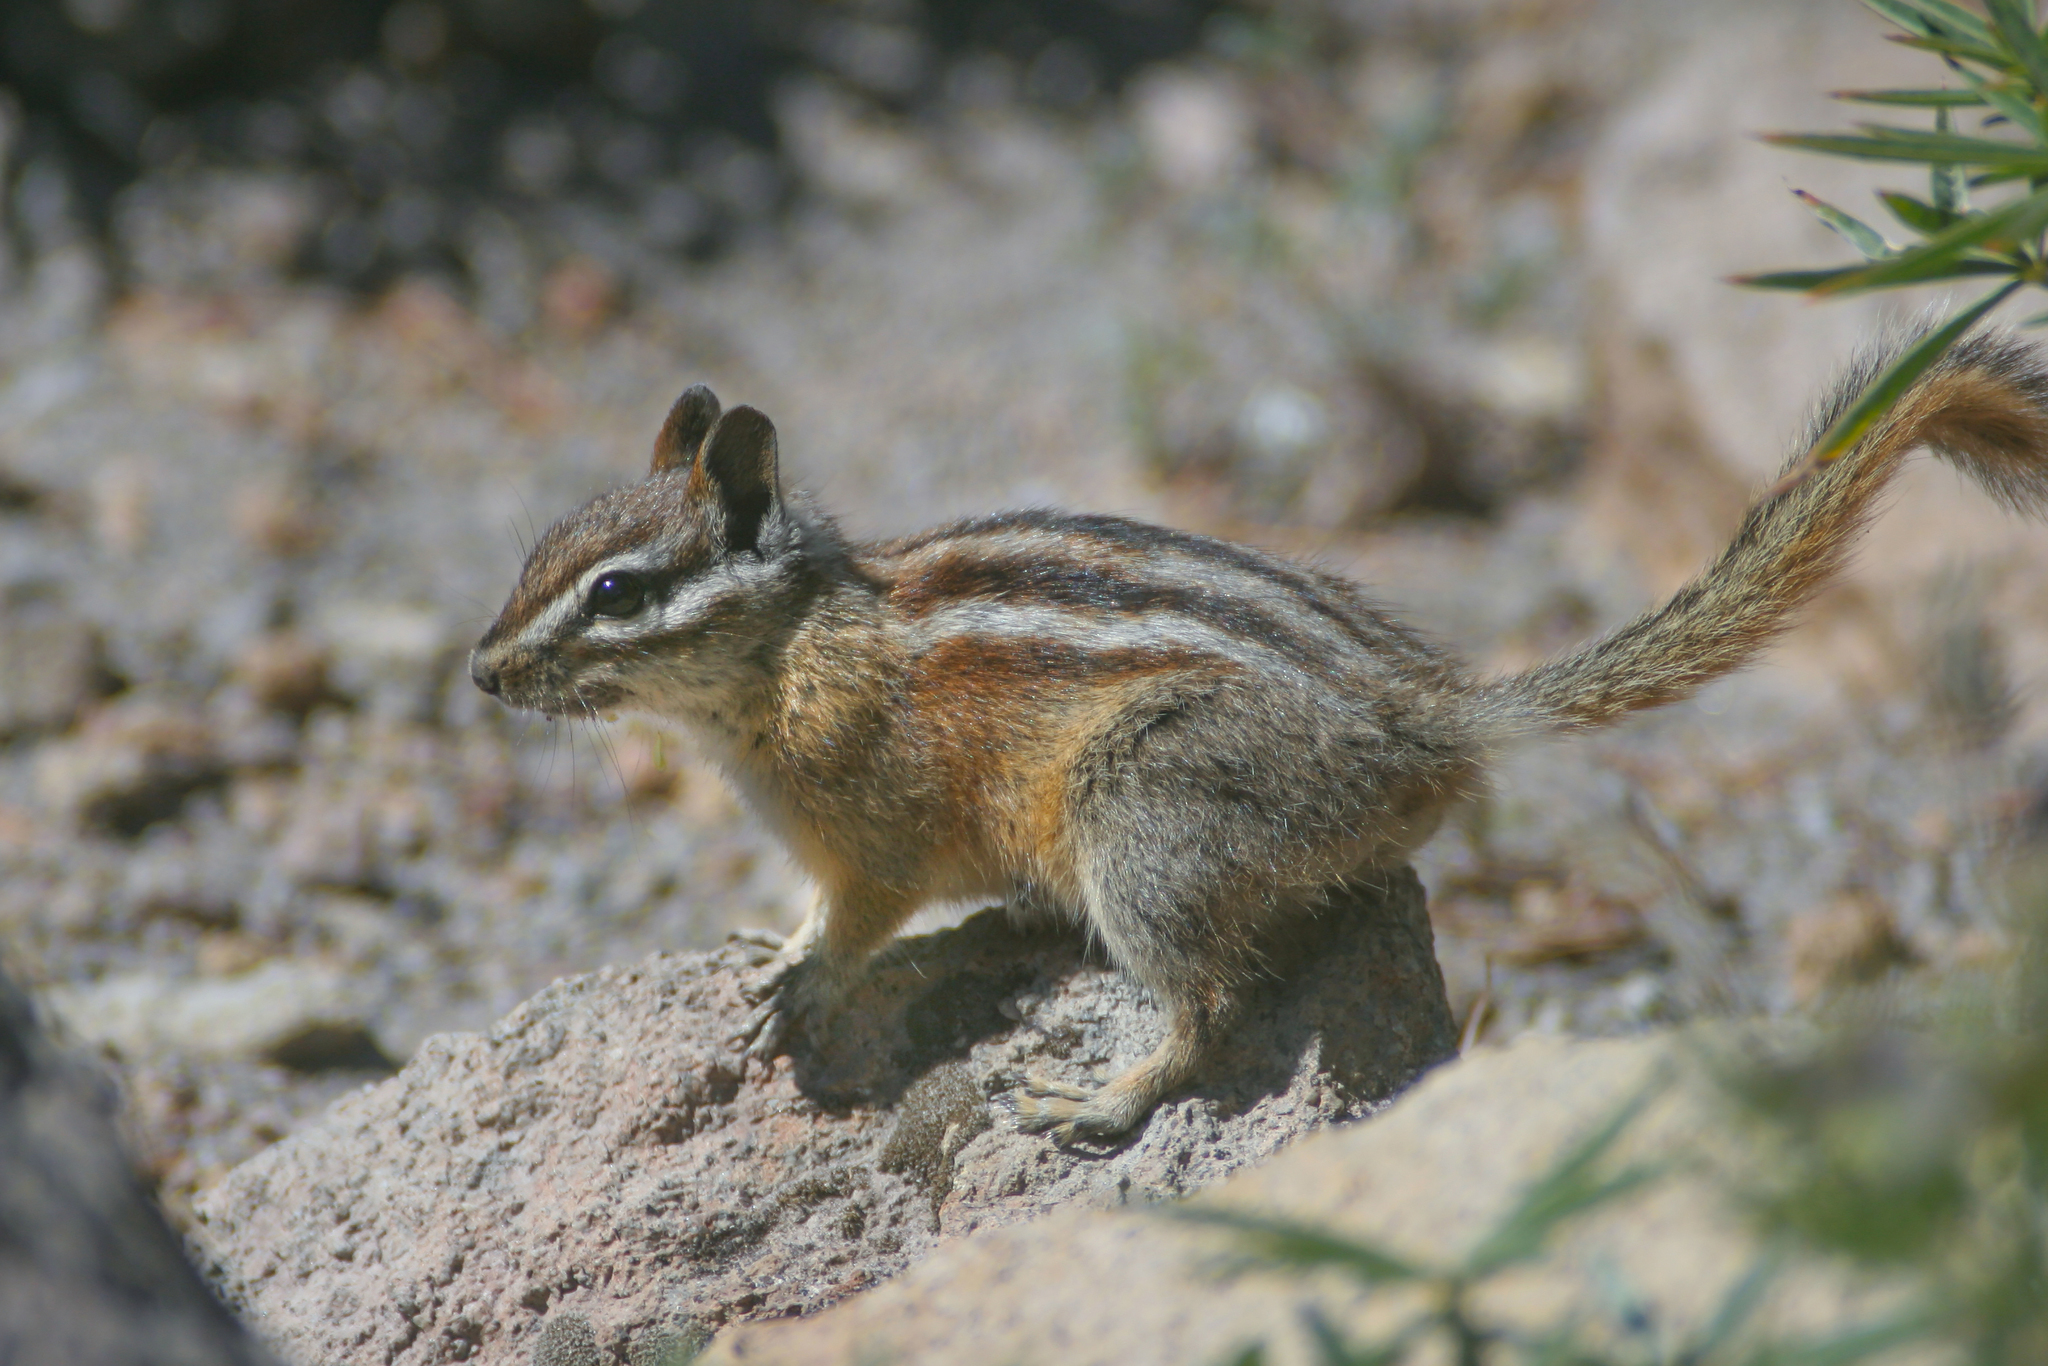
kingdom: Animalia
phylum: Chordata
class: Mammalia
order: Rodentia
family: Sciuridae
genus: Tamias
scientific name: Tamias amoenus
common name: Yellow-pine chipmunk
